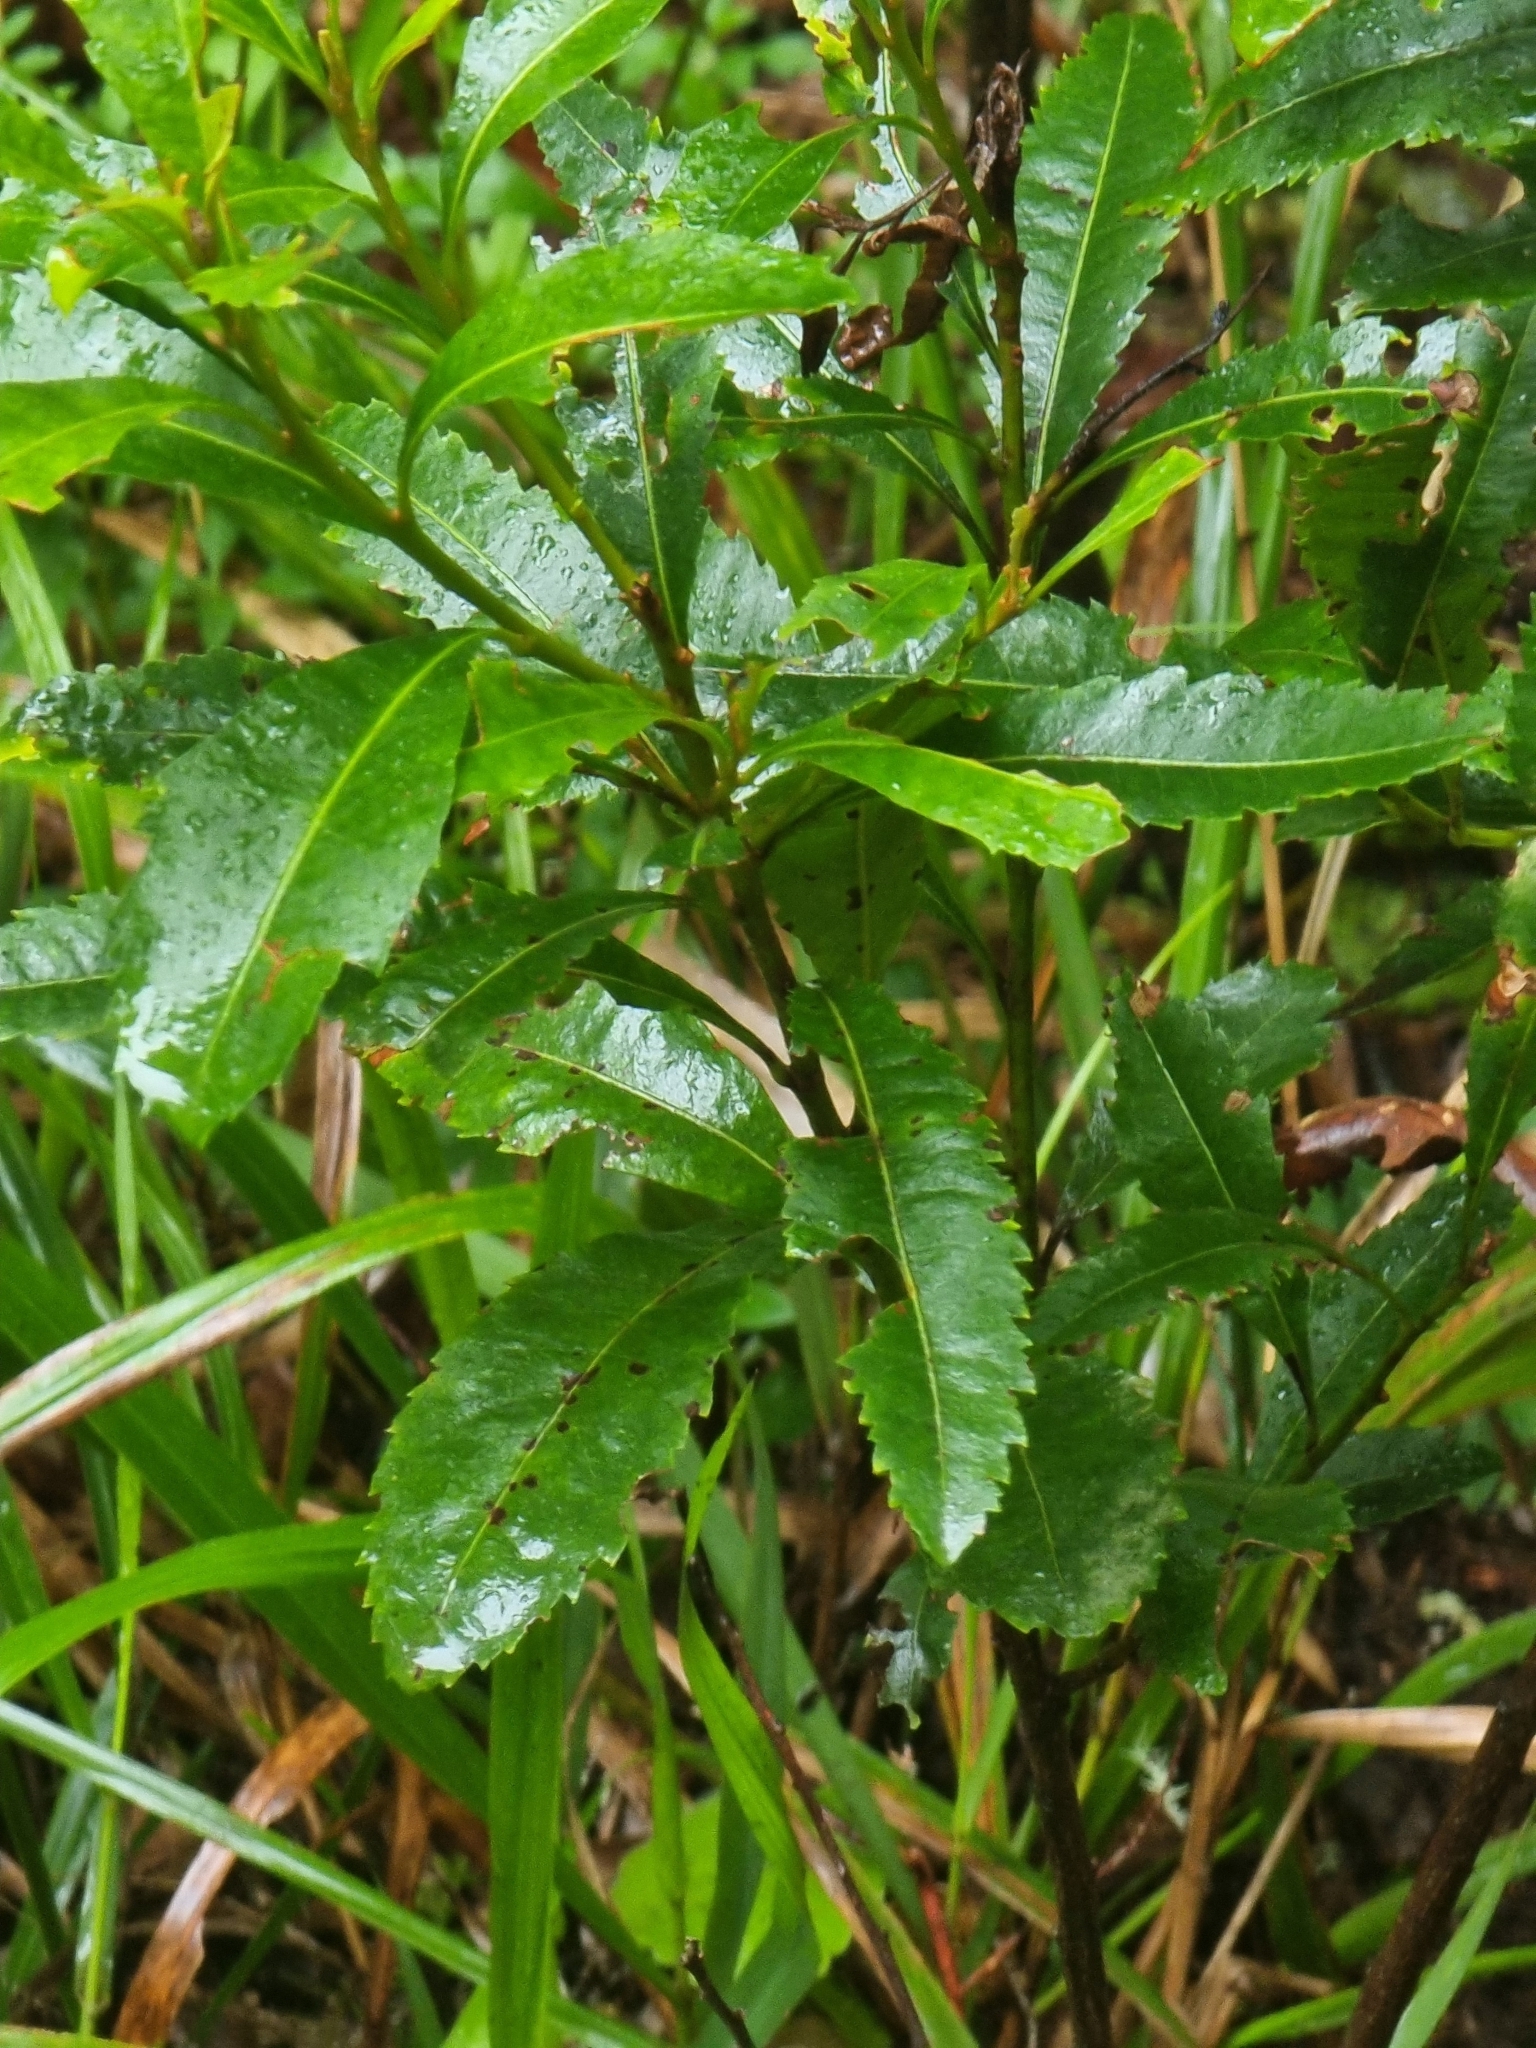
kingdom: Plantae
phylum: Tracheophyta
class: Magnoliopsida
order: Fagales
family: Myricaceae
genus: Morella
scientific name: Morella faya
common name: Firetree
